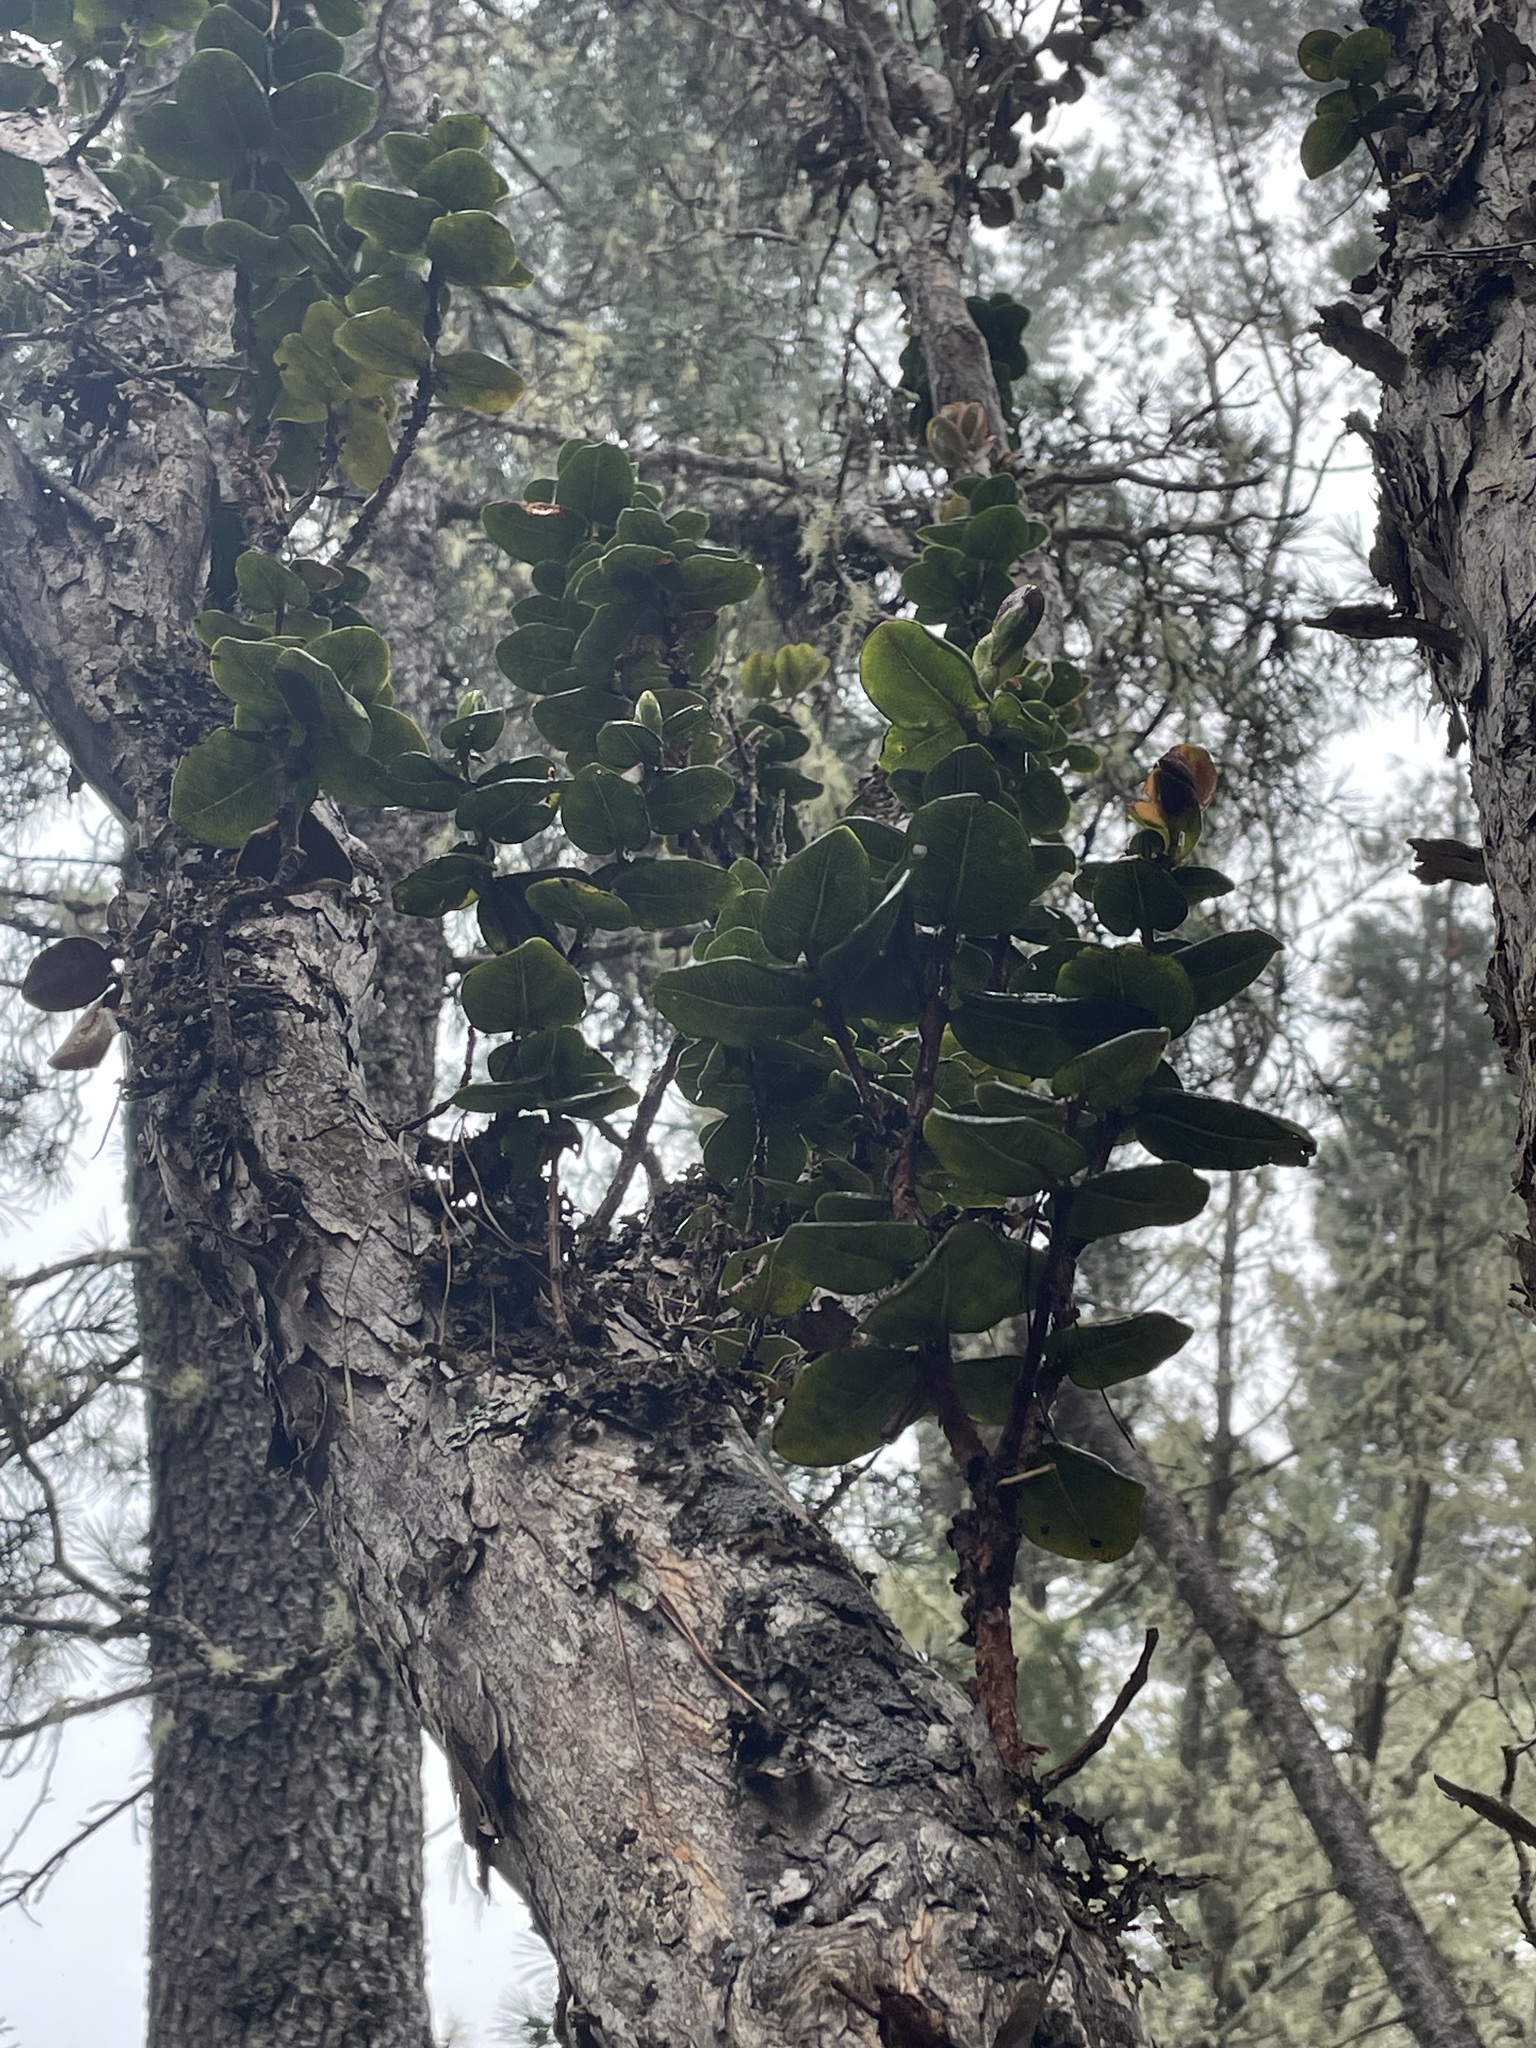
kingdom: Plantae
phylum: Tracheophyta
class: Magnoliopsida
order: Myrtales
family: Myrtaceae
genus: Metrosideros
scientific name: Metrosideros polymorpha
